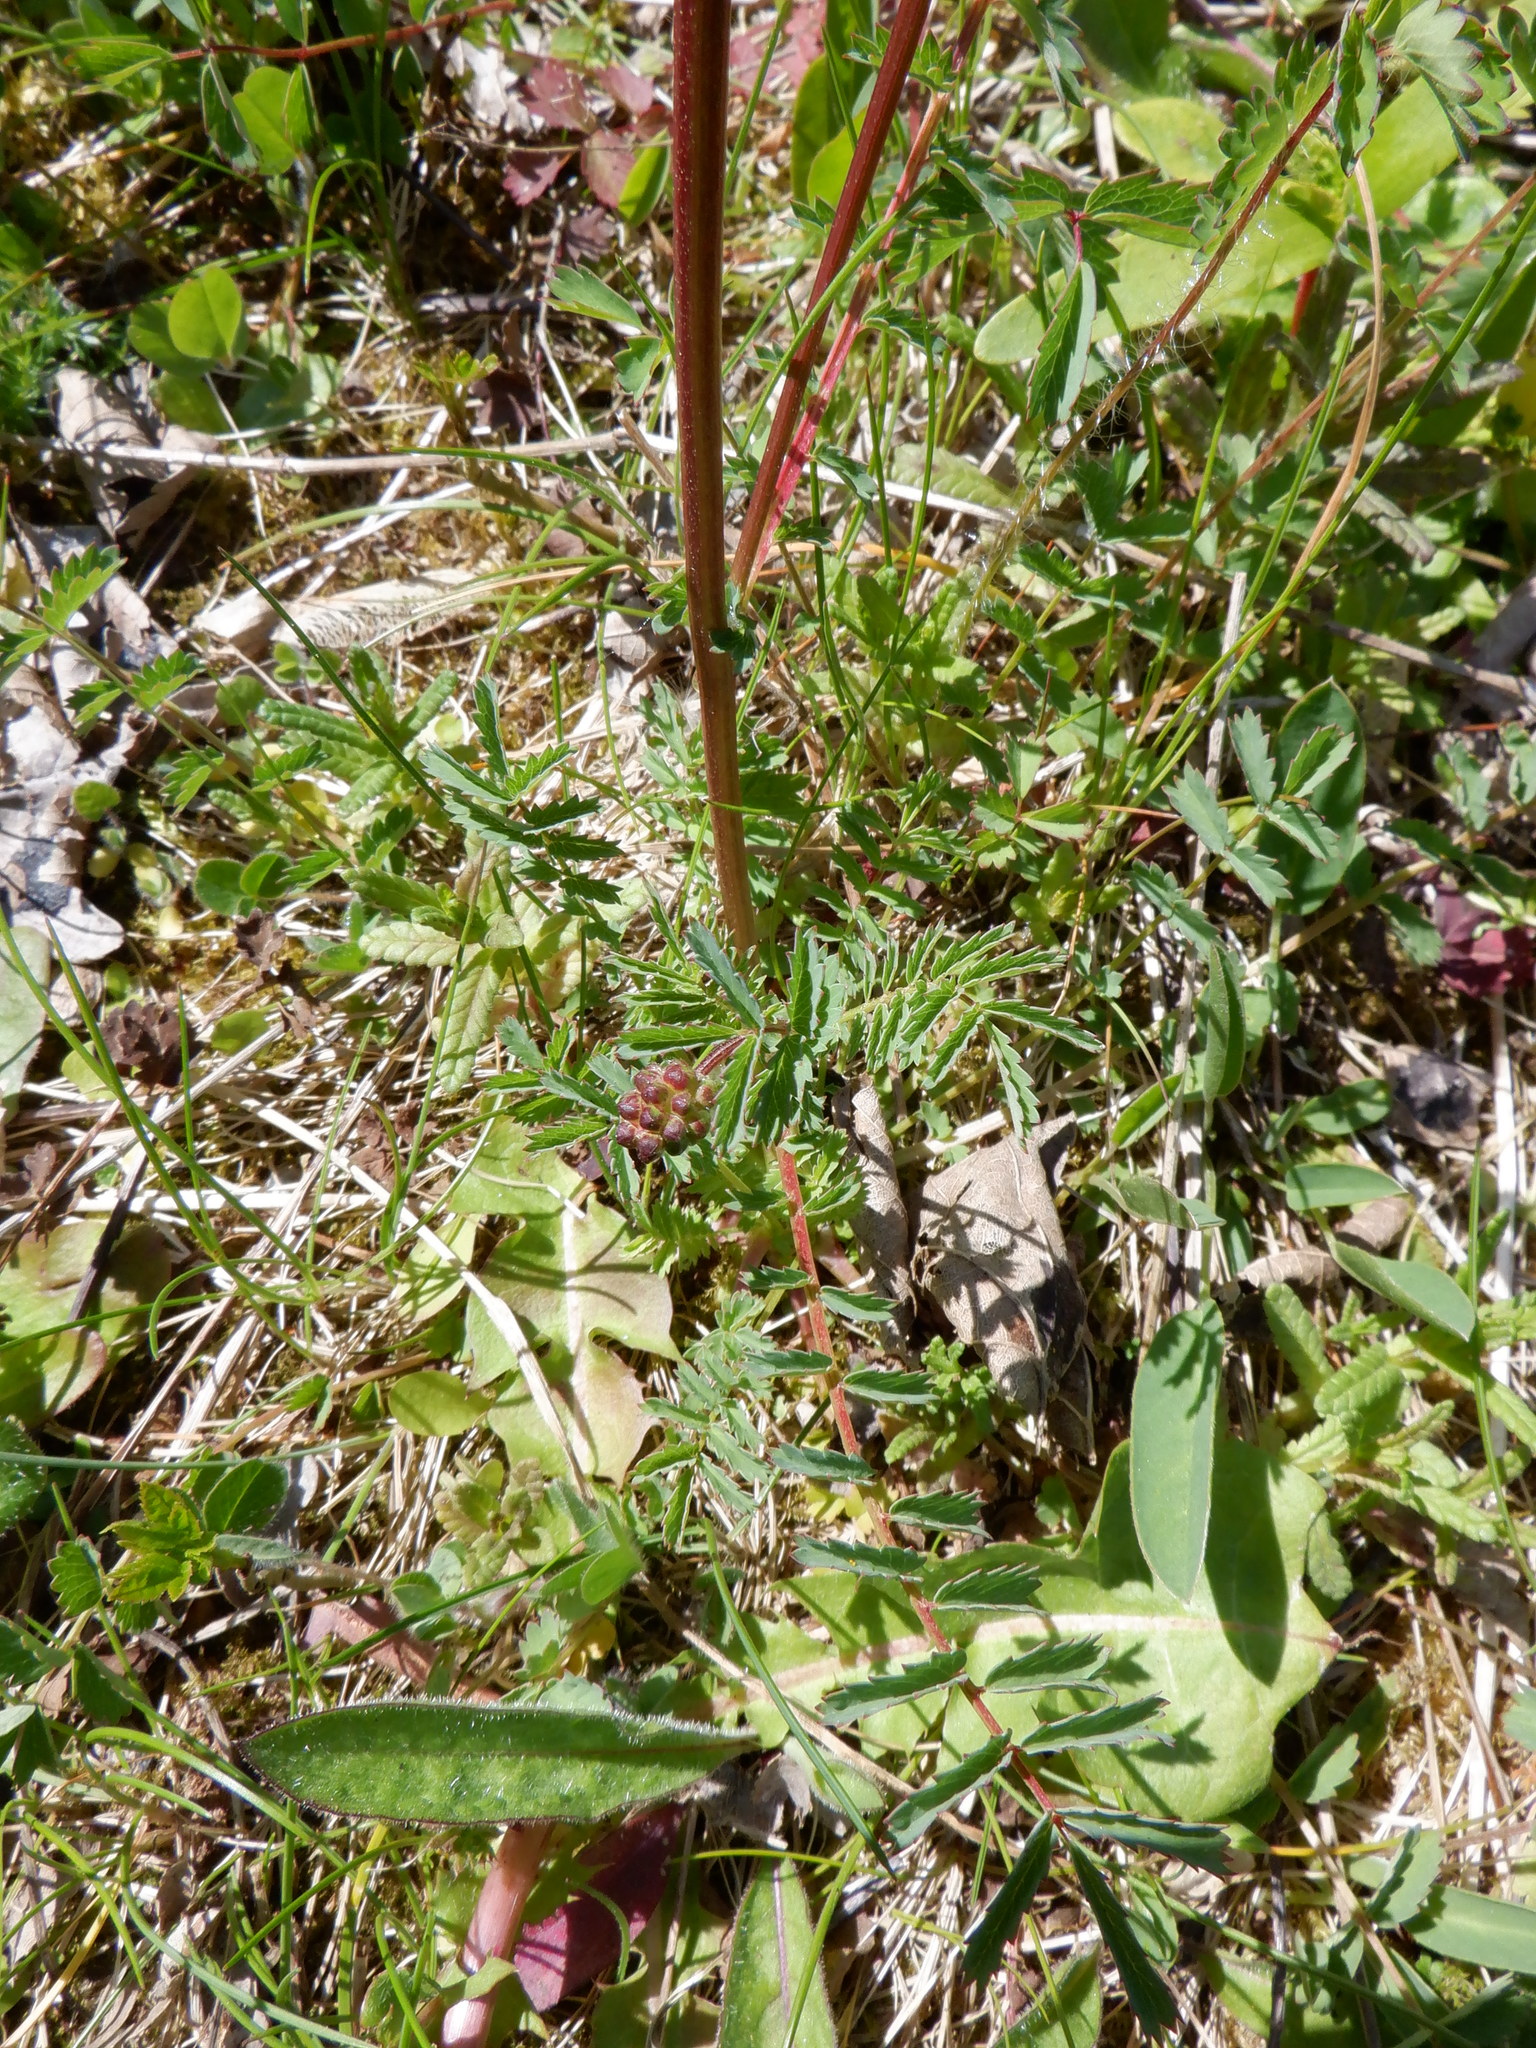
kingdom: Plantae
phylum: Tracheophyta
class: Magnoliopsida
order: Rosales
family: Rosaceae
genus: Poterium
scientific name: Poterium sanguisorba
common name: Salad burnet
